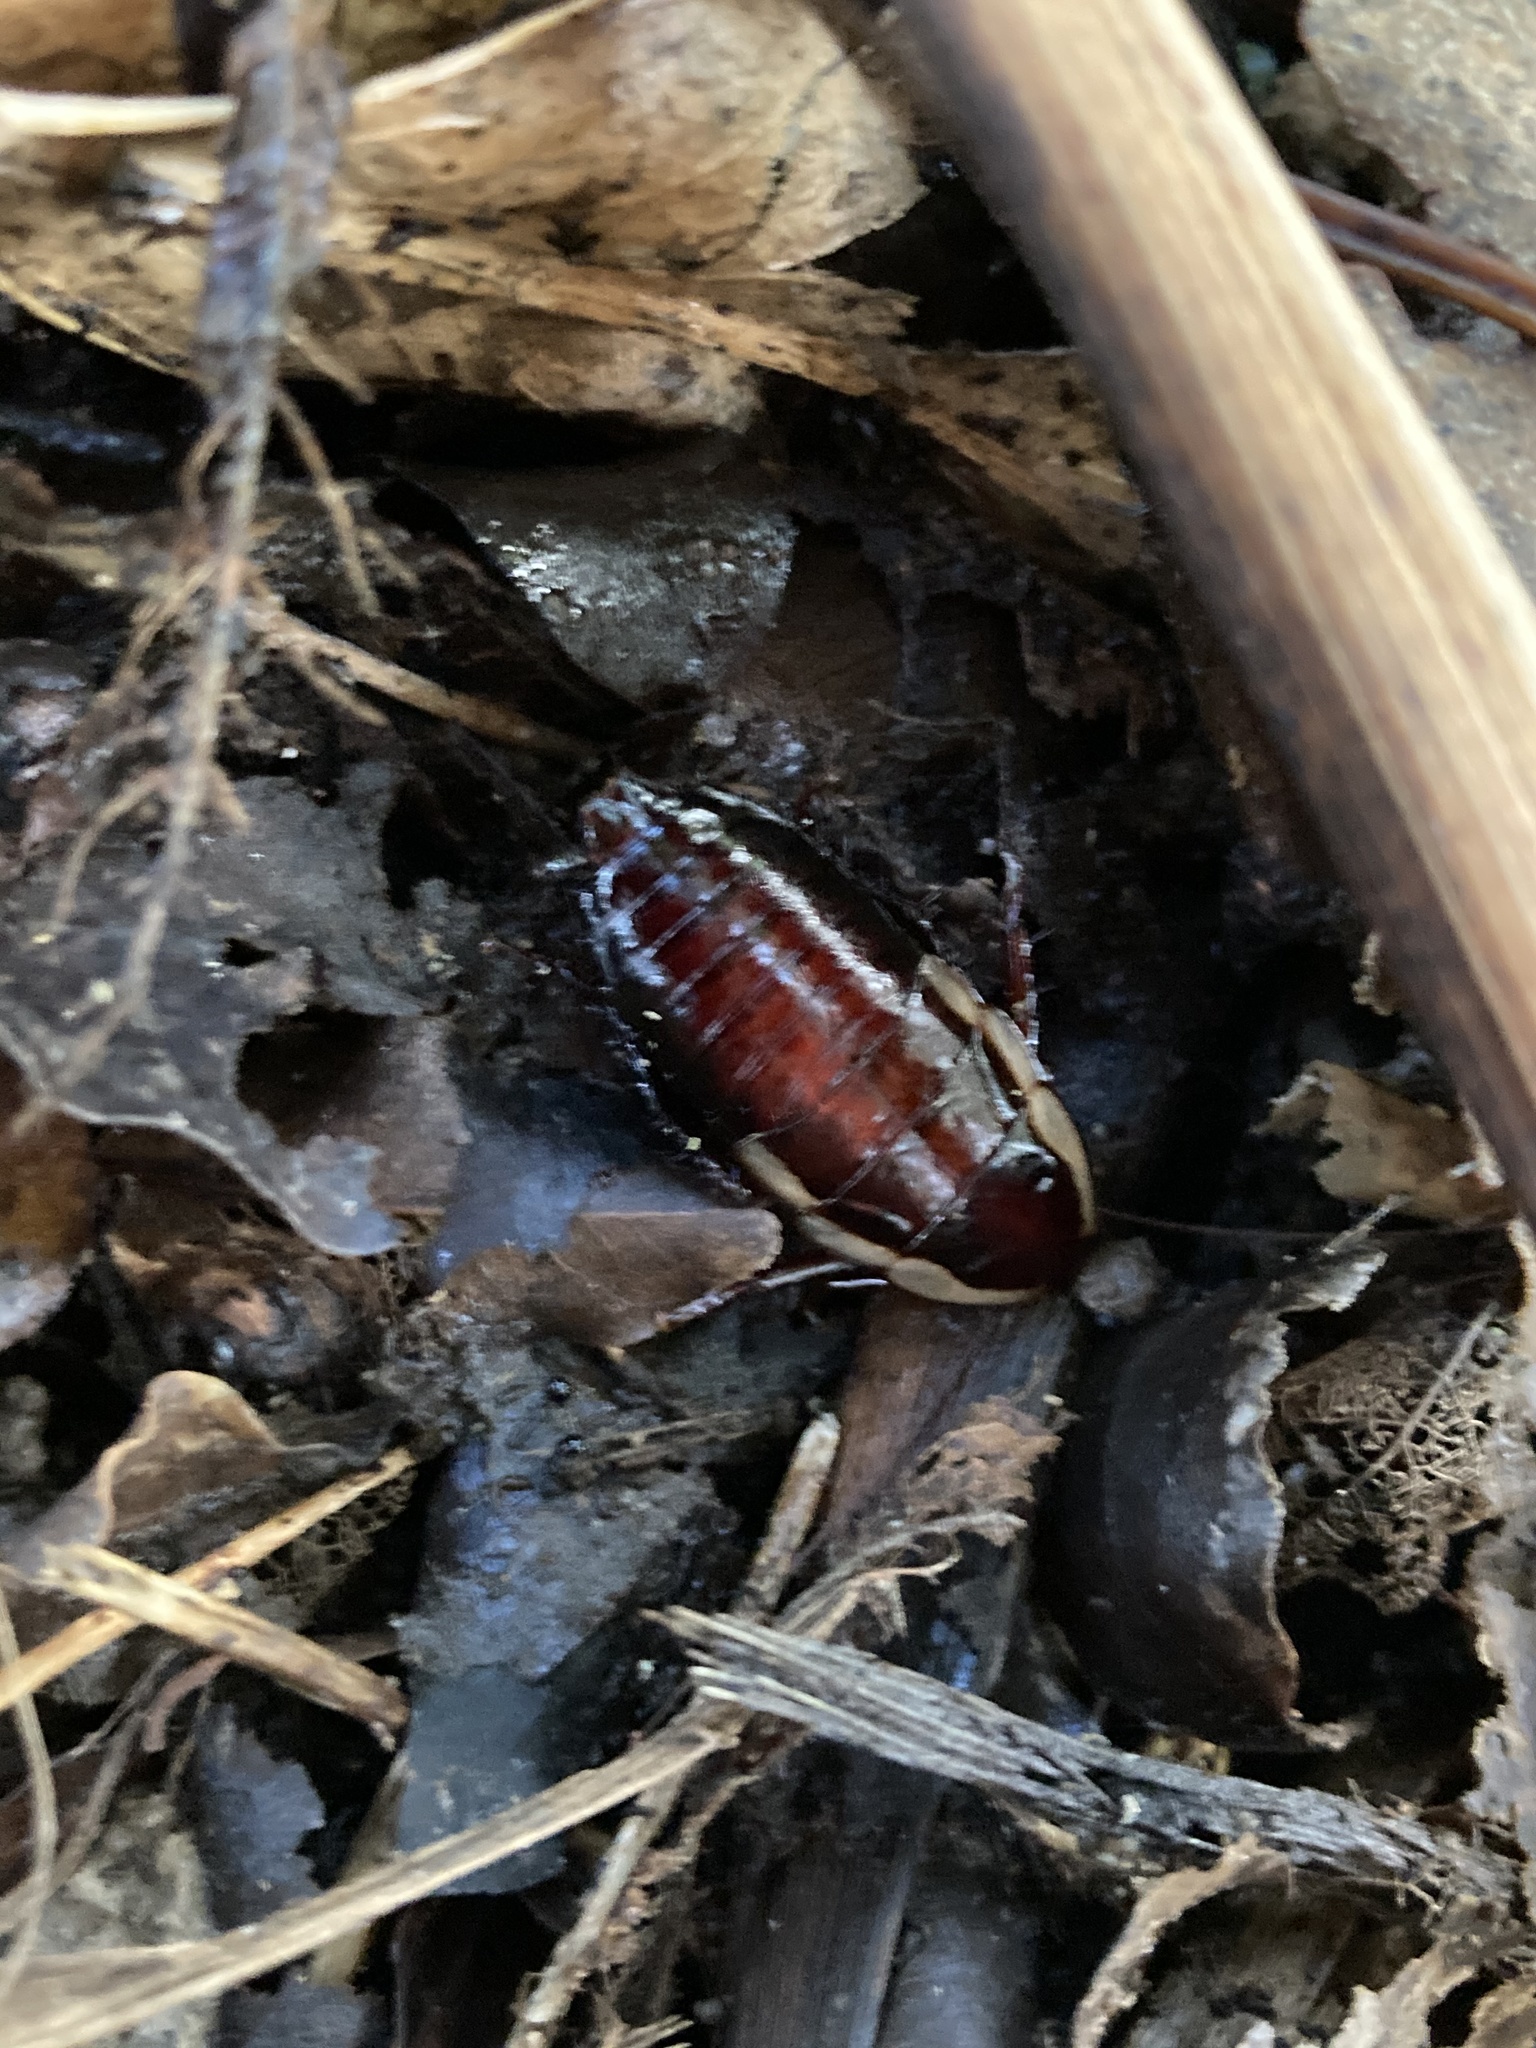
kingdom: Animalia
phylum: Arthropoda
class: Insecta
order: Blattodea
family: Blattidae
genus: Drymaplaneta
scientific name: Drymaplaneta semivitta
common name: Gisborne cockroach
